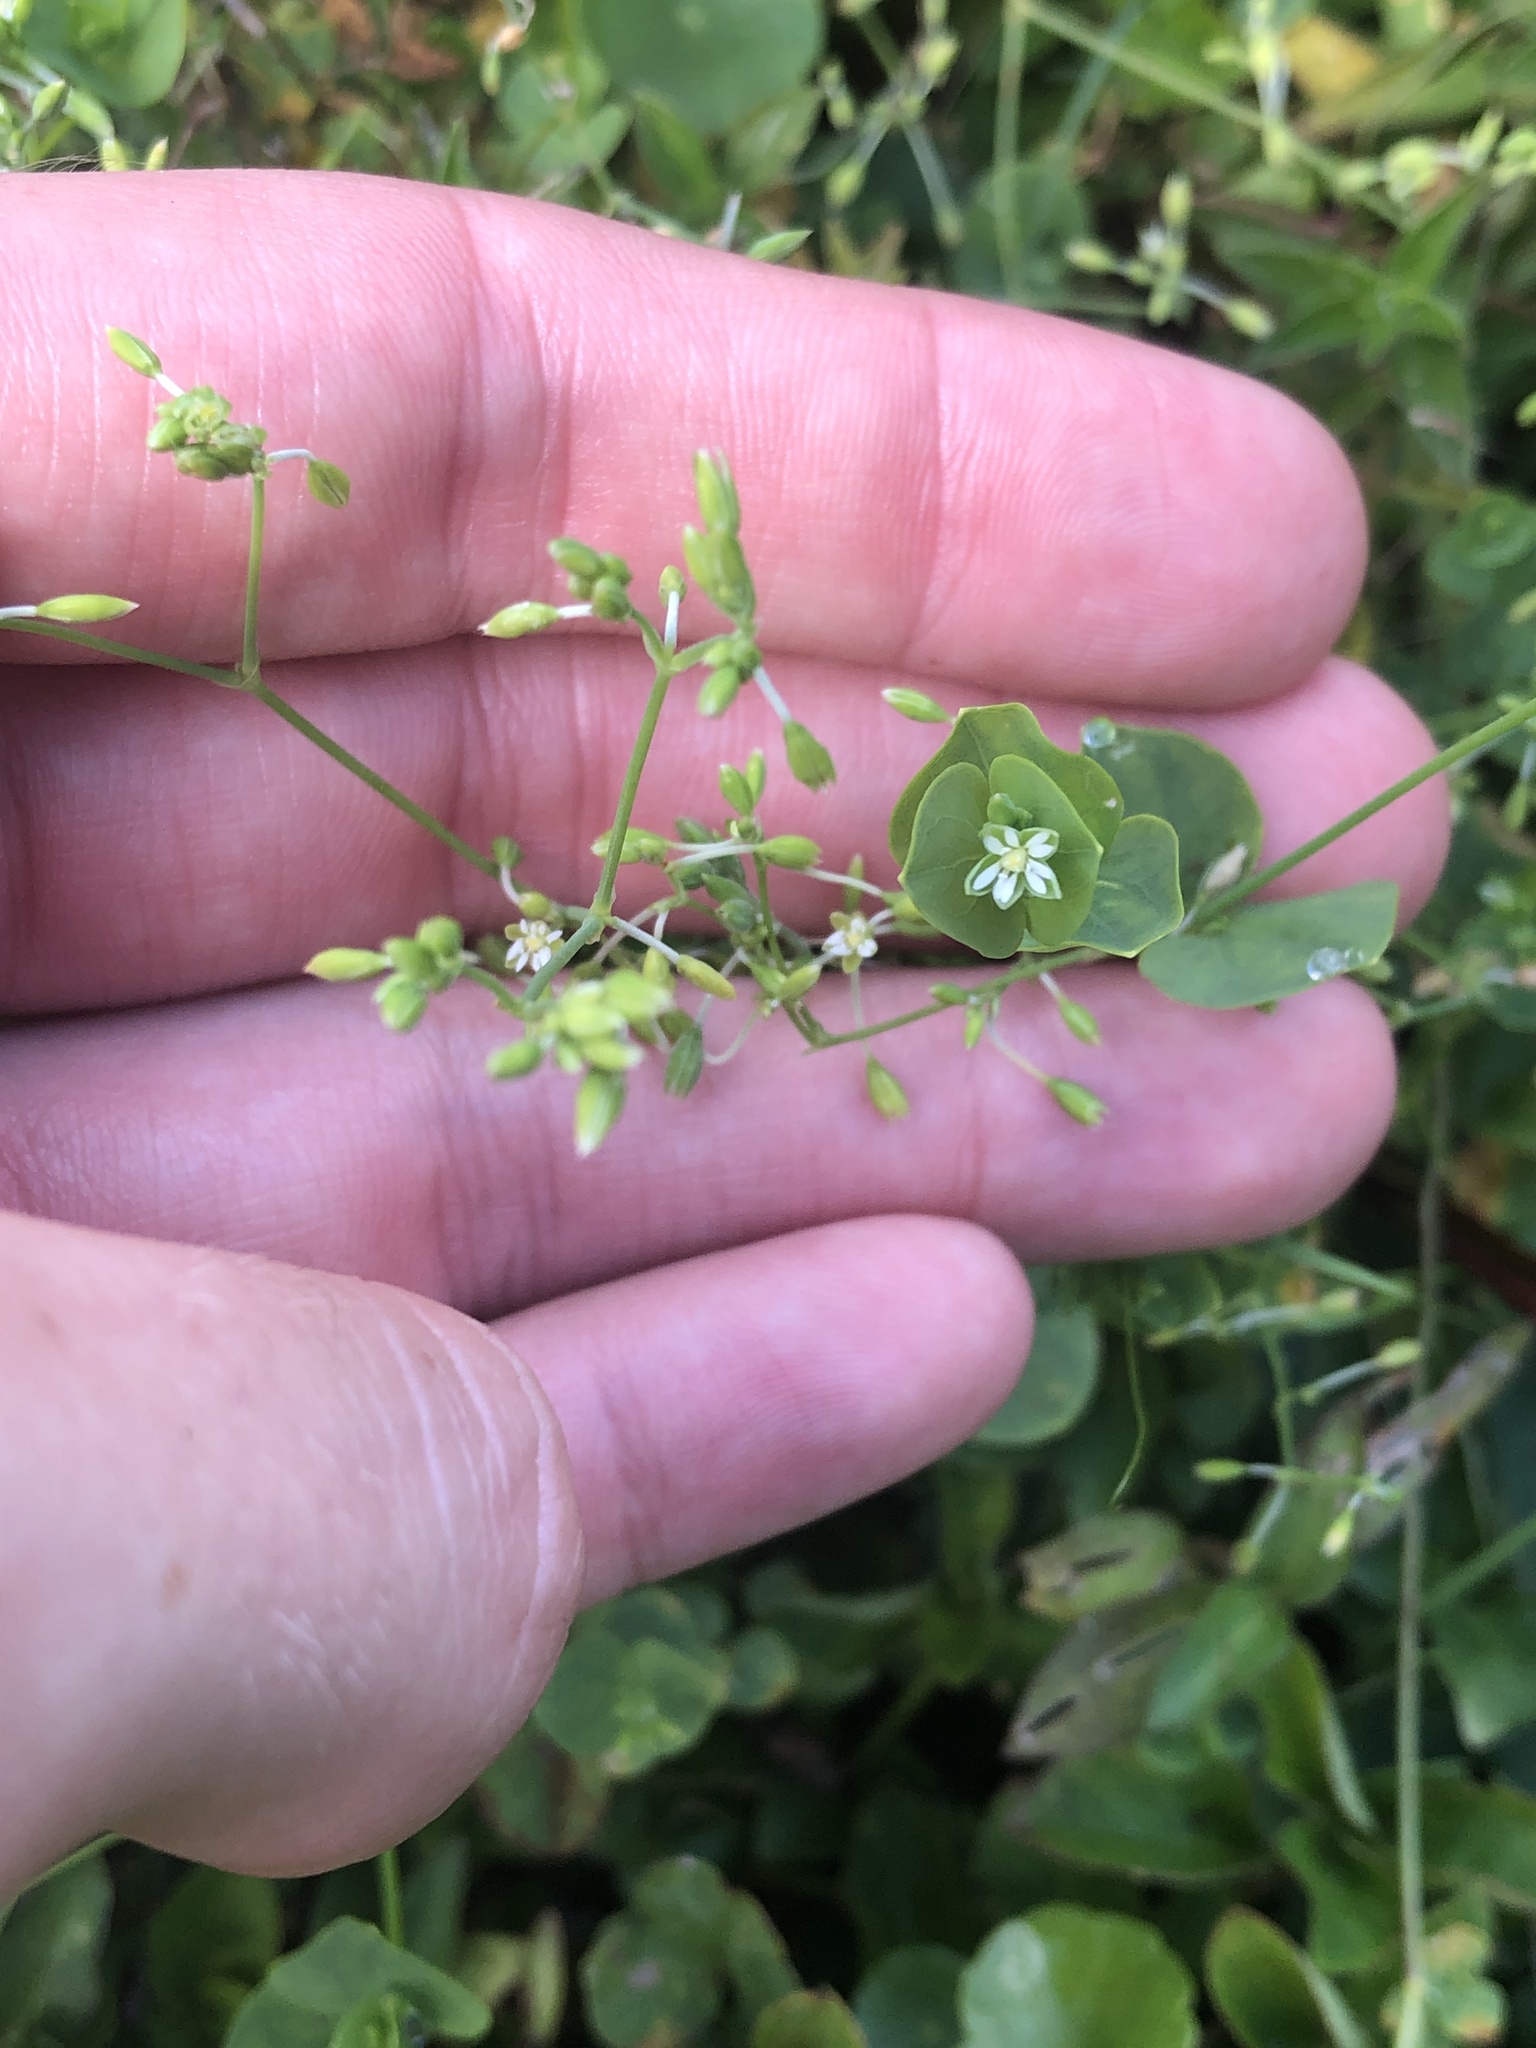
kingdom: Plantae
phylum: Tracheophyta
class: Magnoliopsida
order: Caryophyllales
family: Caryophyllaceae
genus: Drymaria
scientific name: Drymaria cordata
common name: Whitesnow
